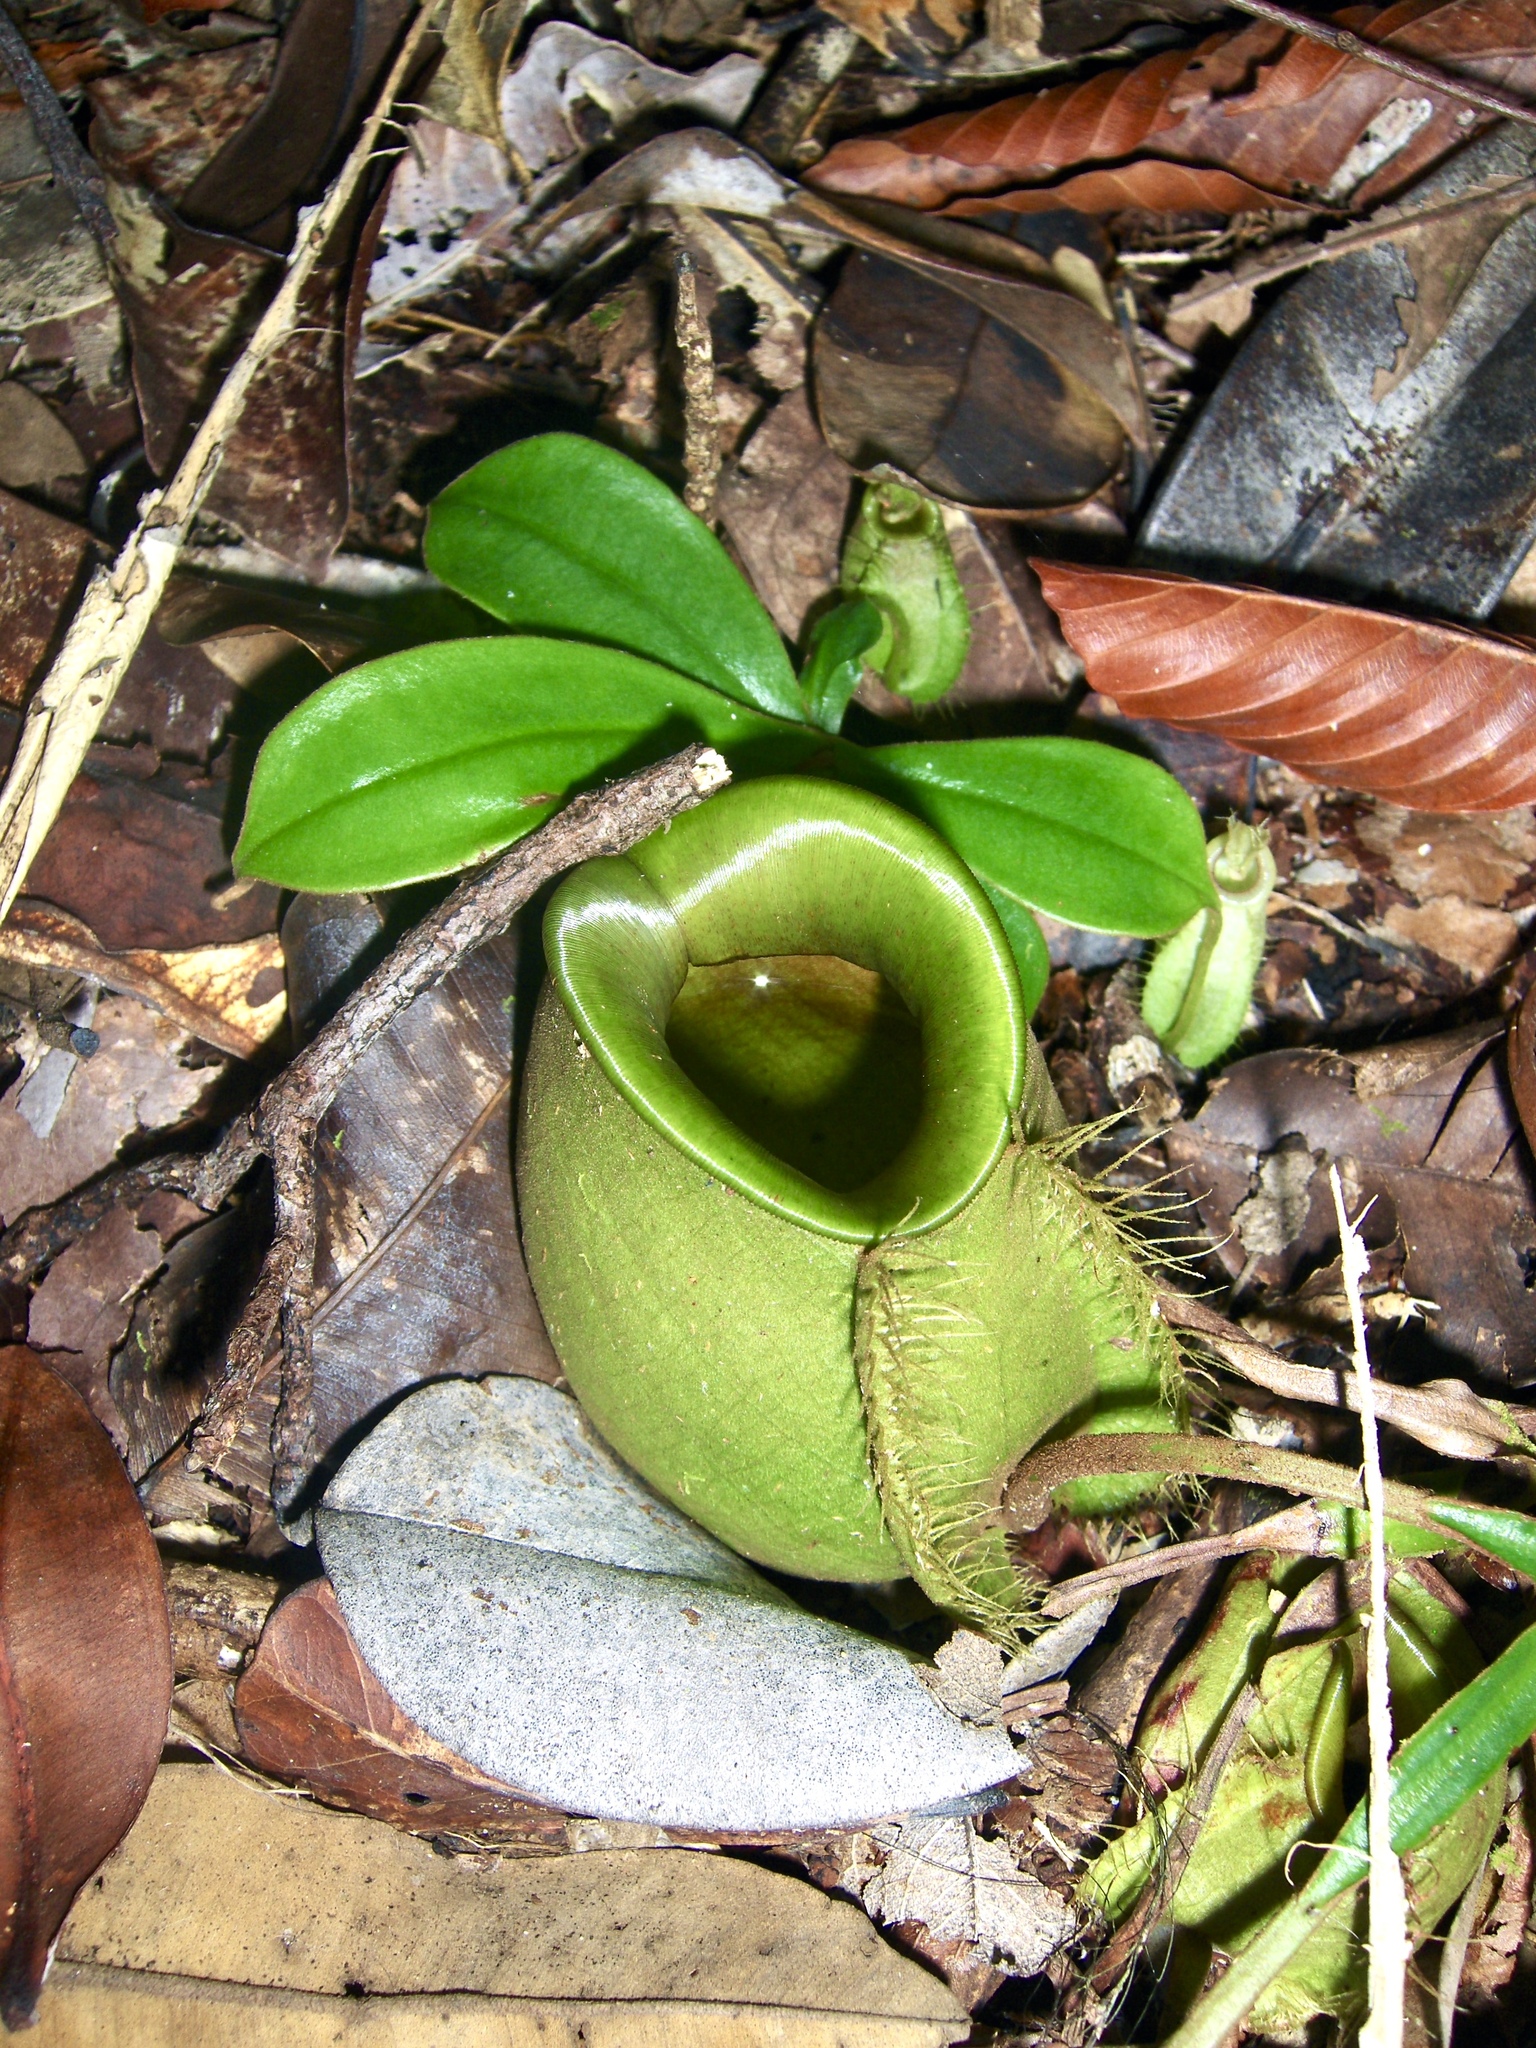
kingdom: Plantae
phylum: Tracheophyta
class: Magnoliopsida
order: Caryophyllales
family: Nepenthaceae
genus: Nepenthes
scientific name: Nepenthes ampullaria
